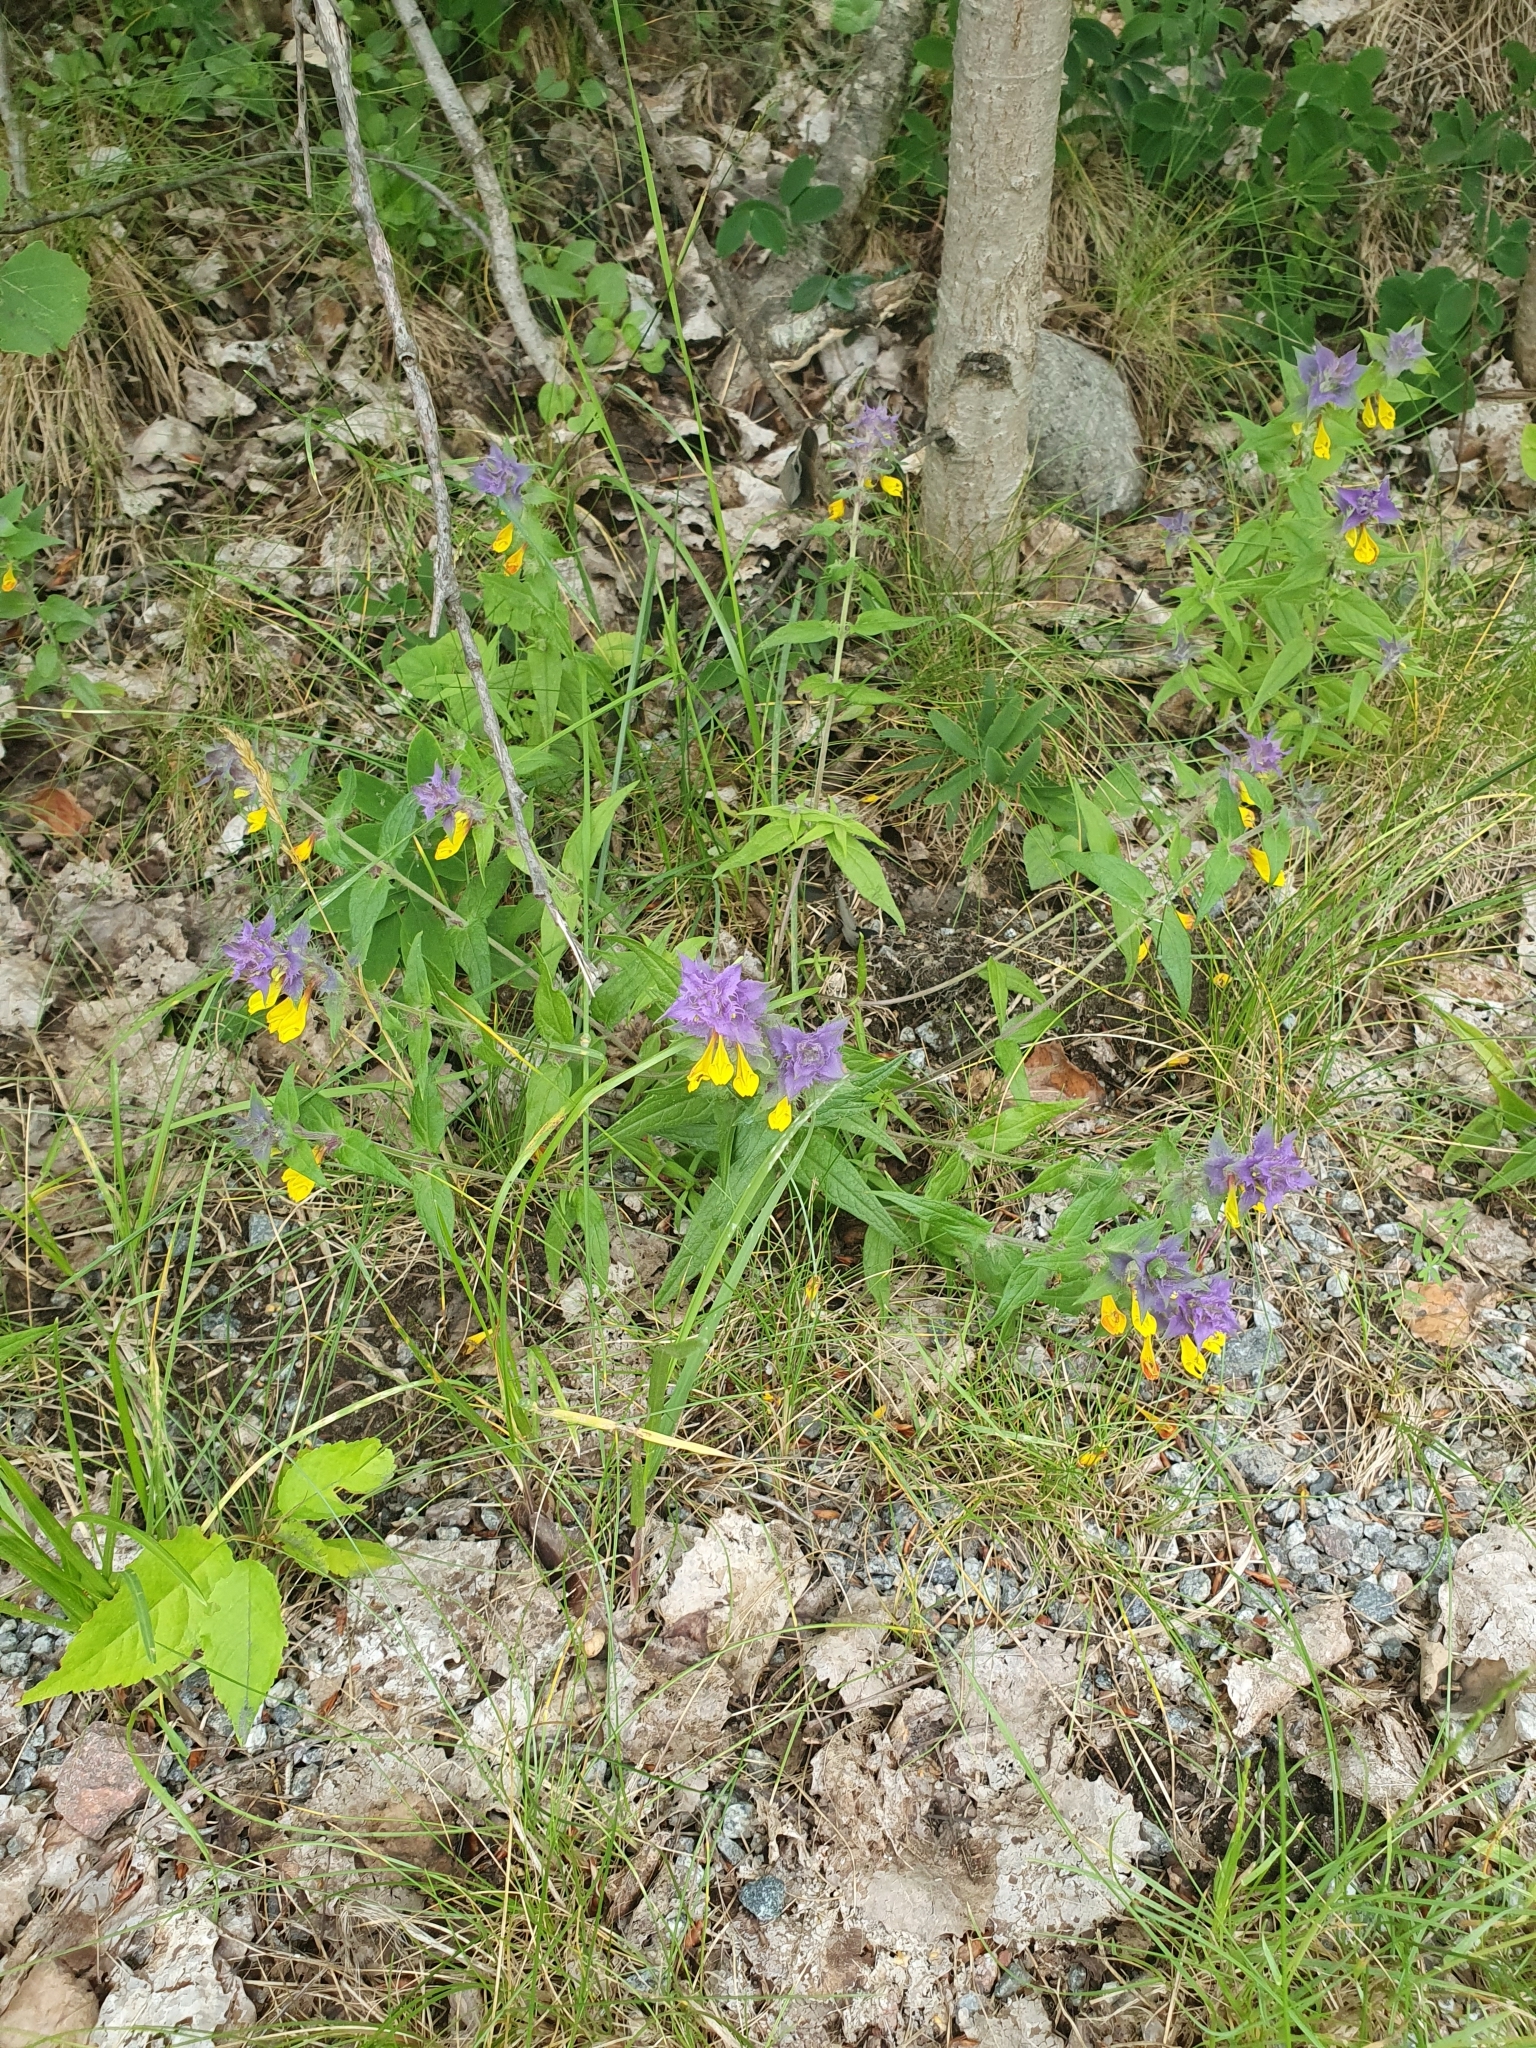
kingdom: Plantae
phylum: Tracheophyta
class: Magnoliopsida
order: Lamiales
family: Orobanchaceae
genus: Melampyrum
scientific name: Melampyrum nemorosum
